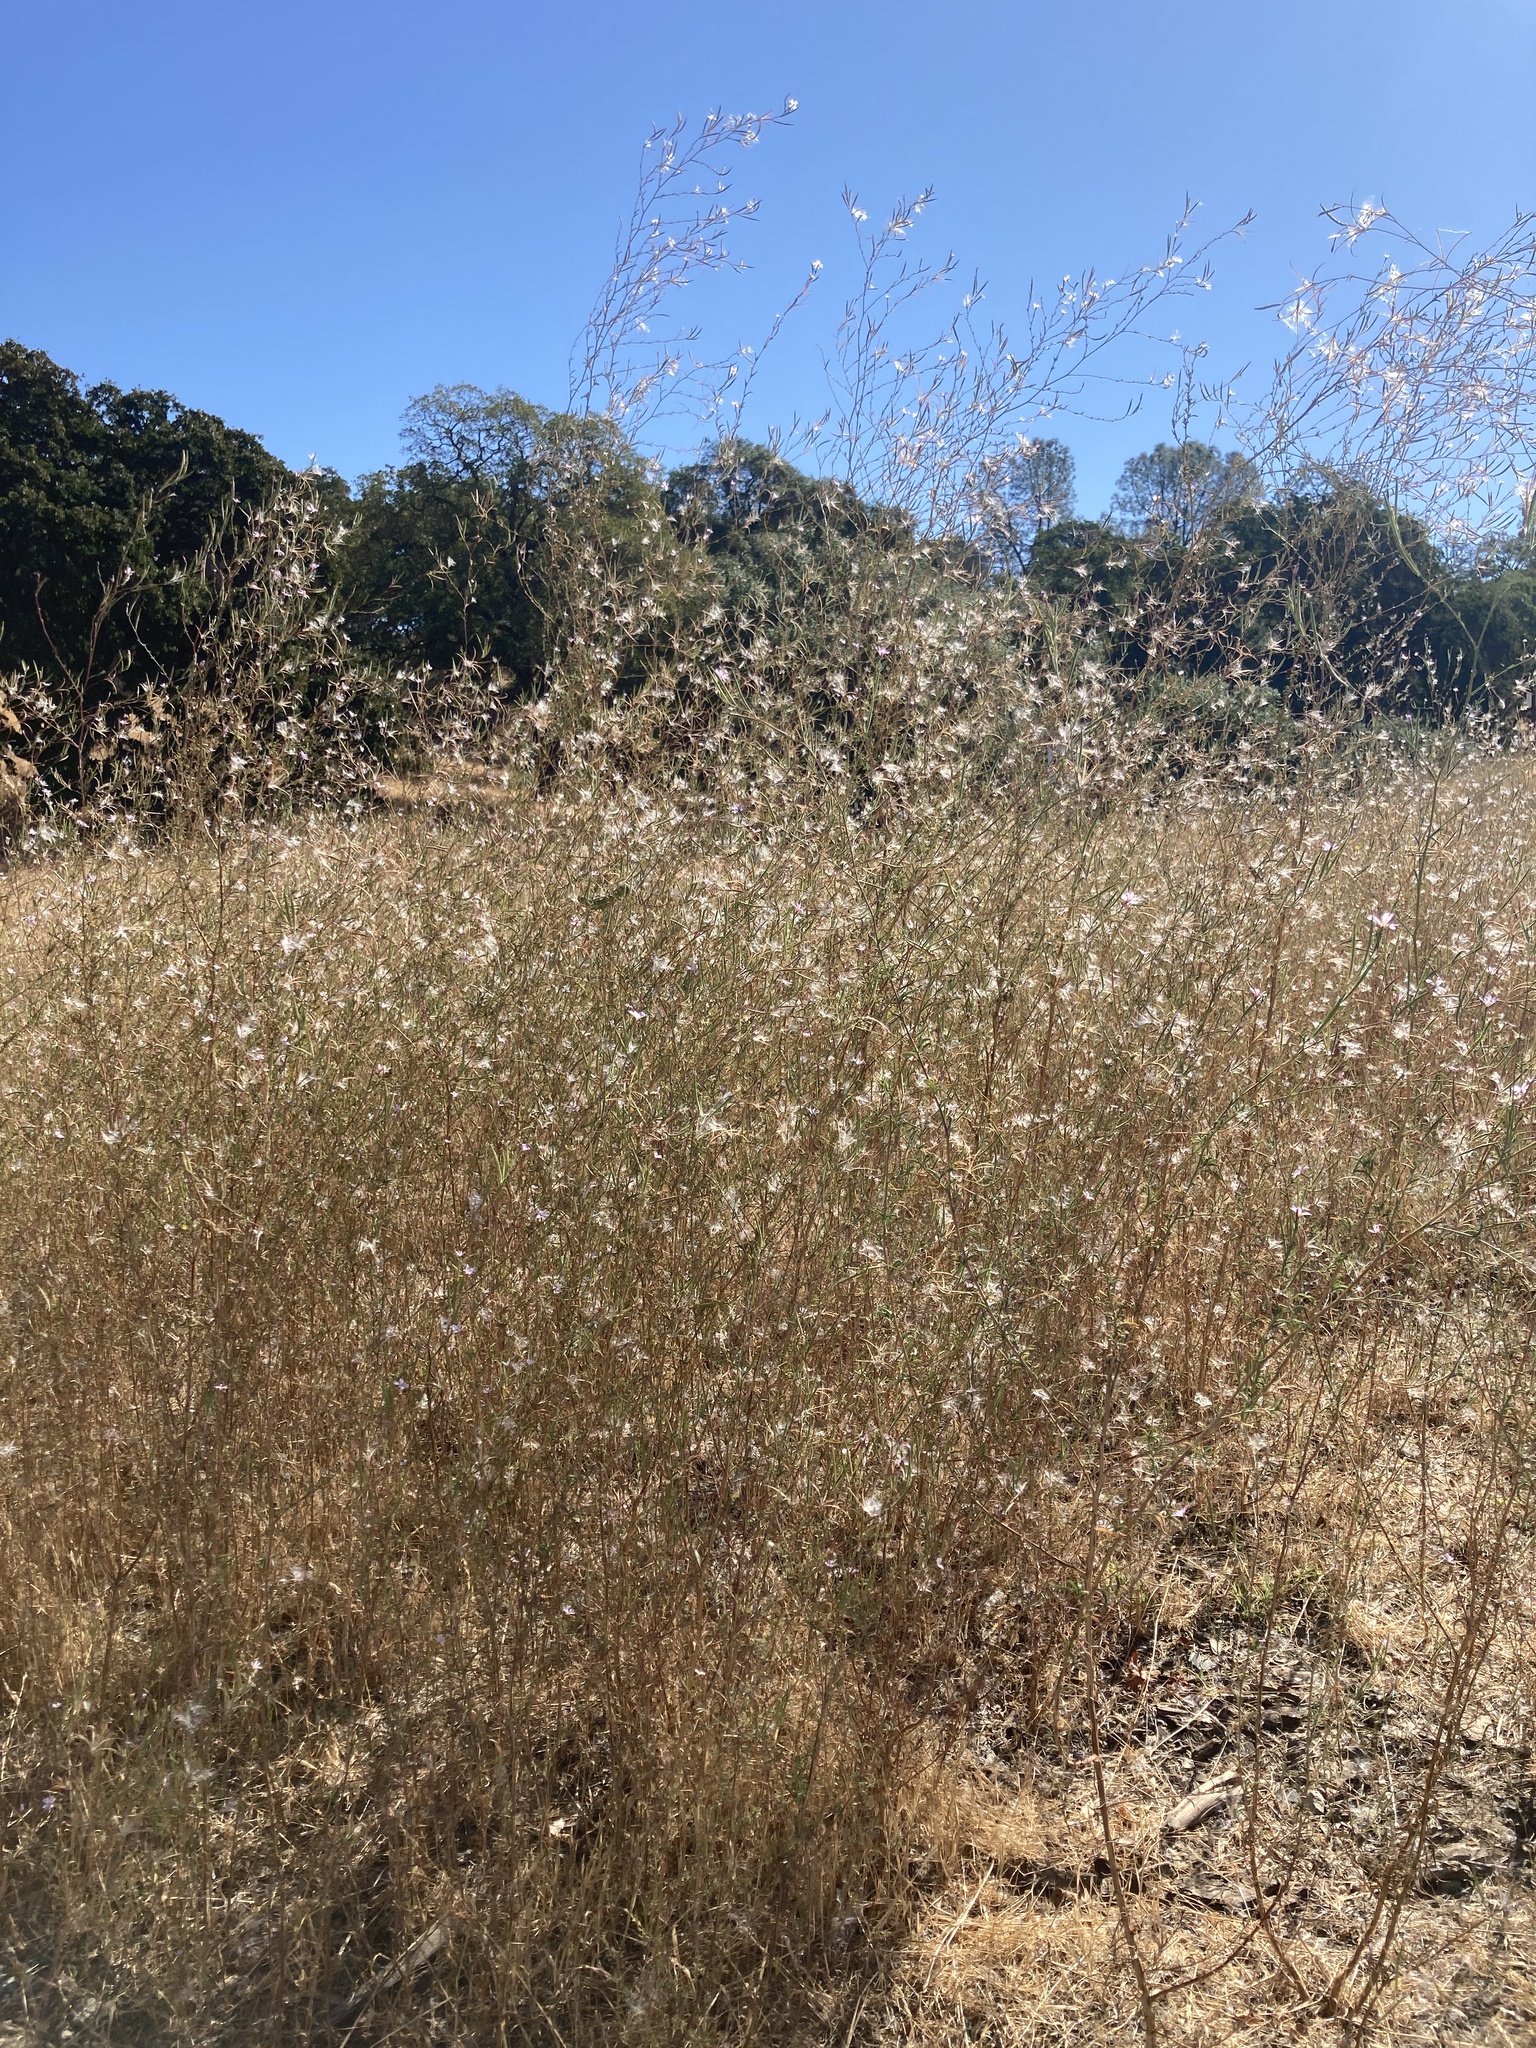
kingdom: Plantae
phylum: Tracheophyta
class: Magnoliopsida
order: Myrtales
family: Onagraceae
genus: Epilobium
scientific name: Epilobium brachycarpum
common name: Annual willowherb
